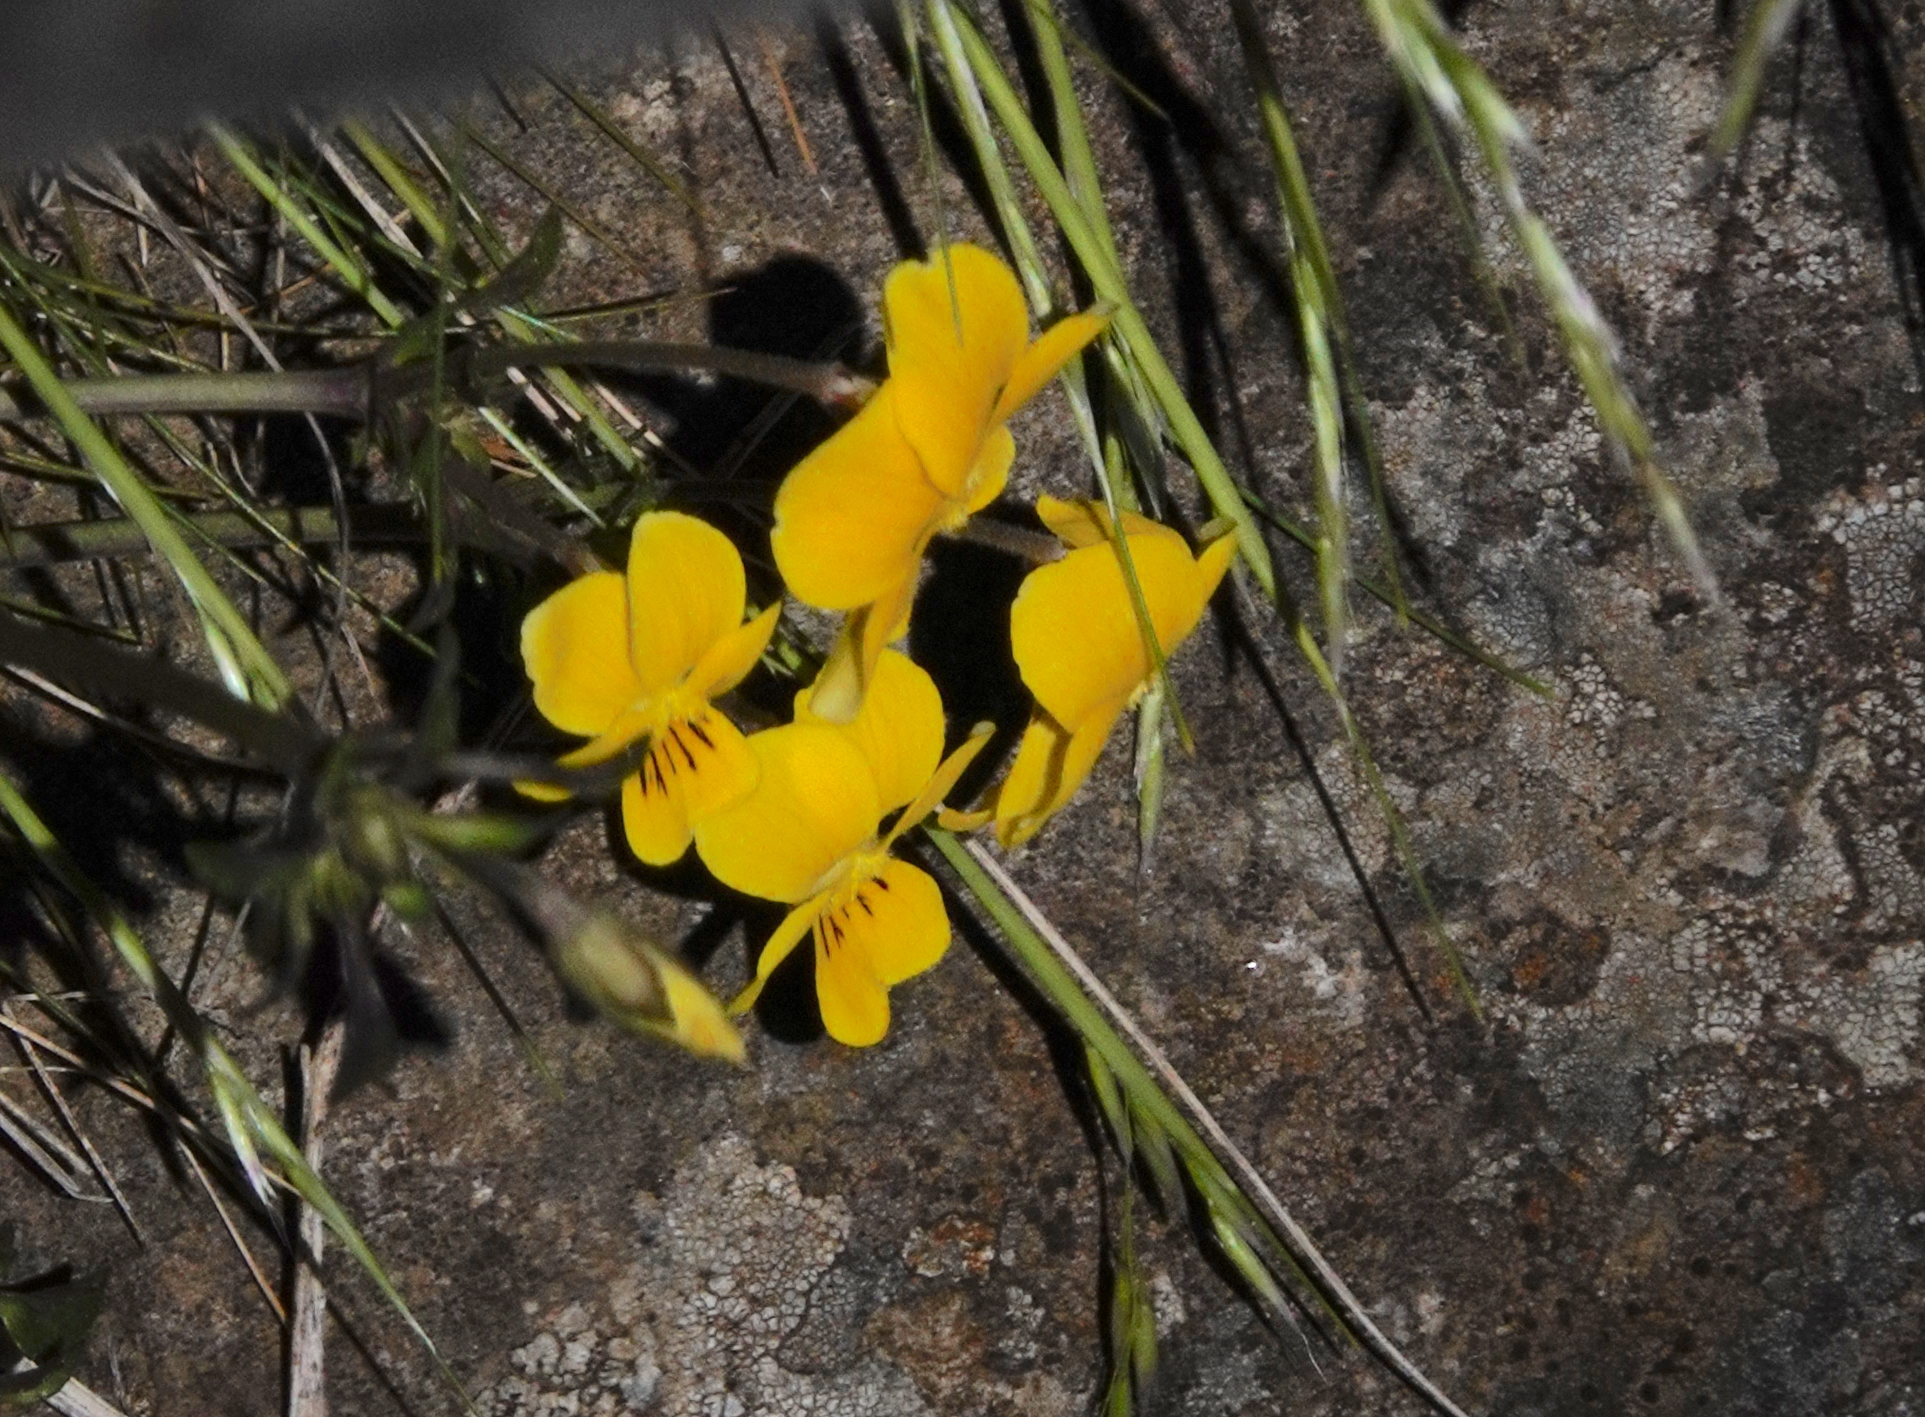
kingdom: Plantae
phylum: Tracheophyta
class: Magnoliopsida
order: Malpighiales
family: Violaceae
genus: Viola
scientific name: Viola paradoxa
